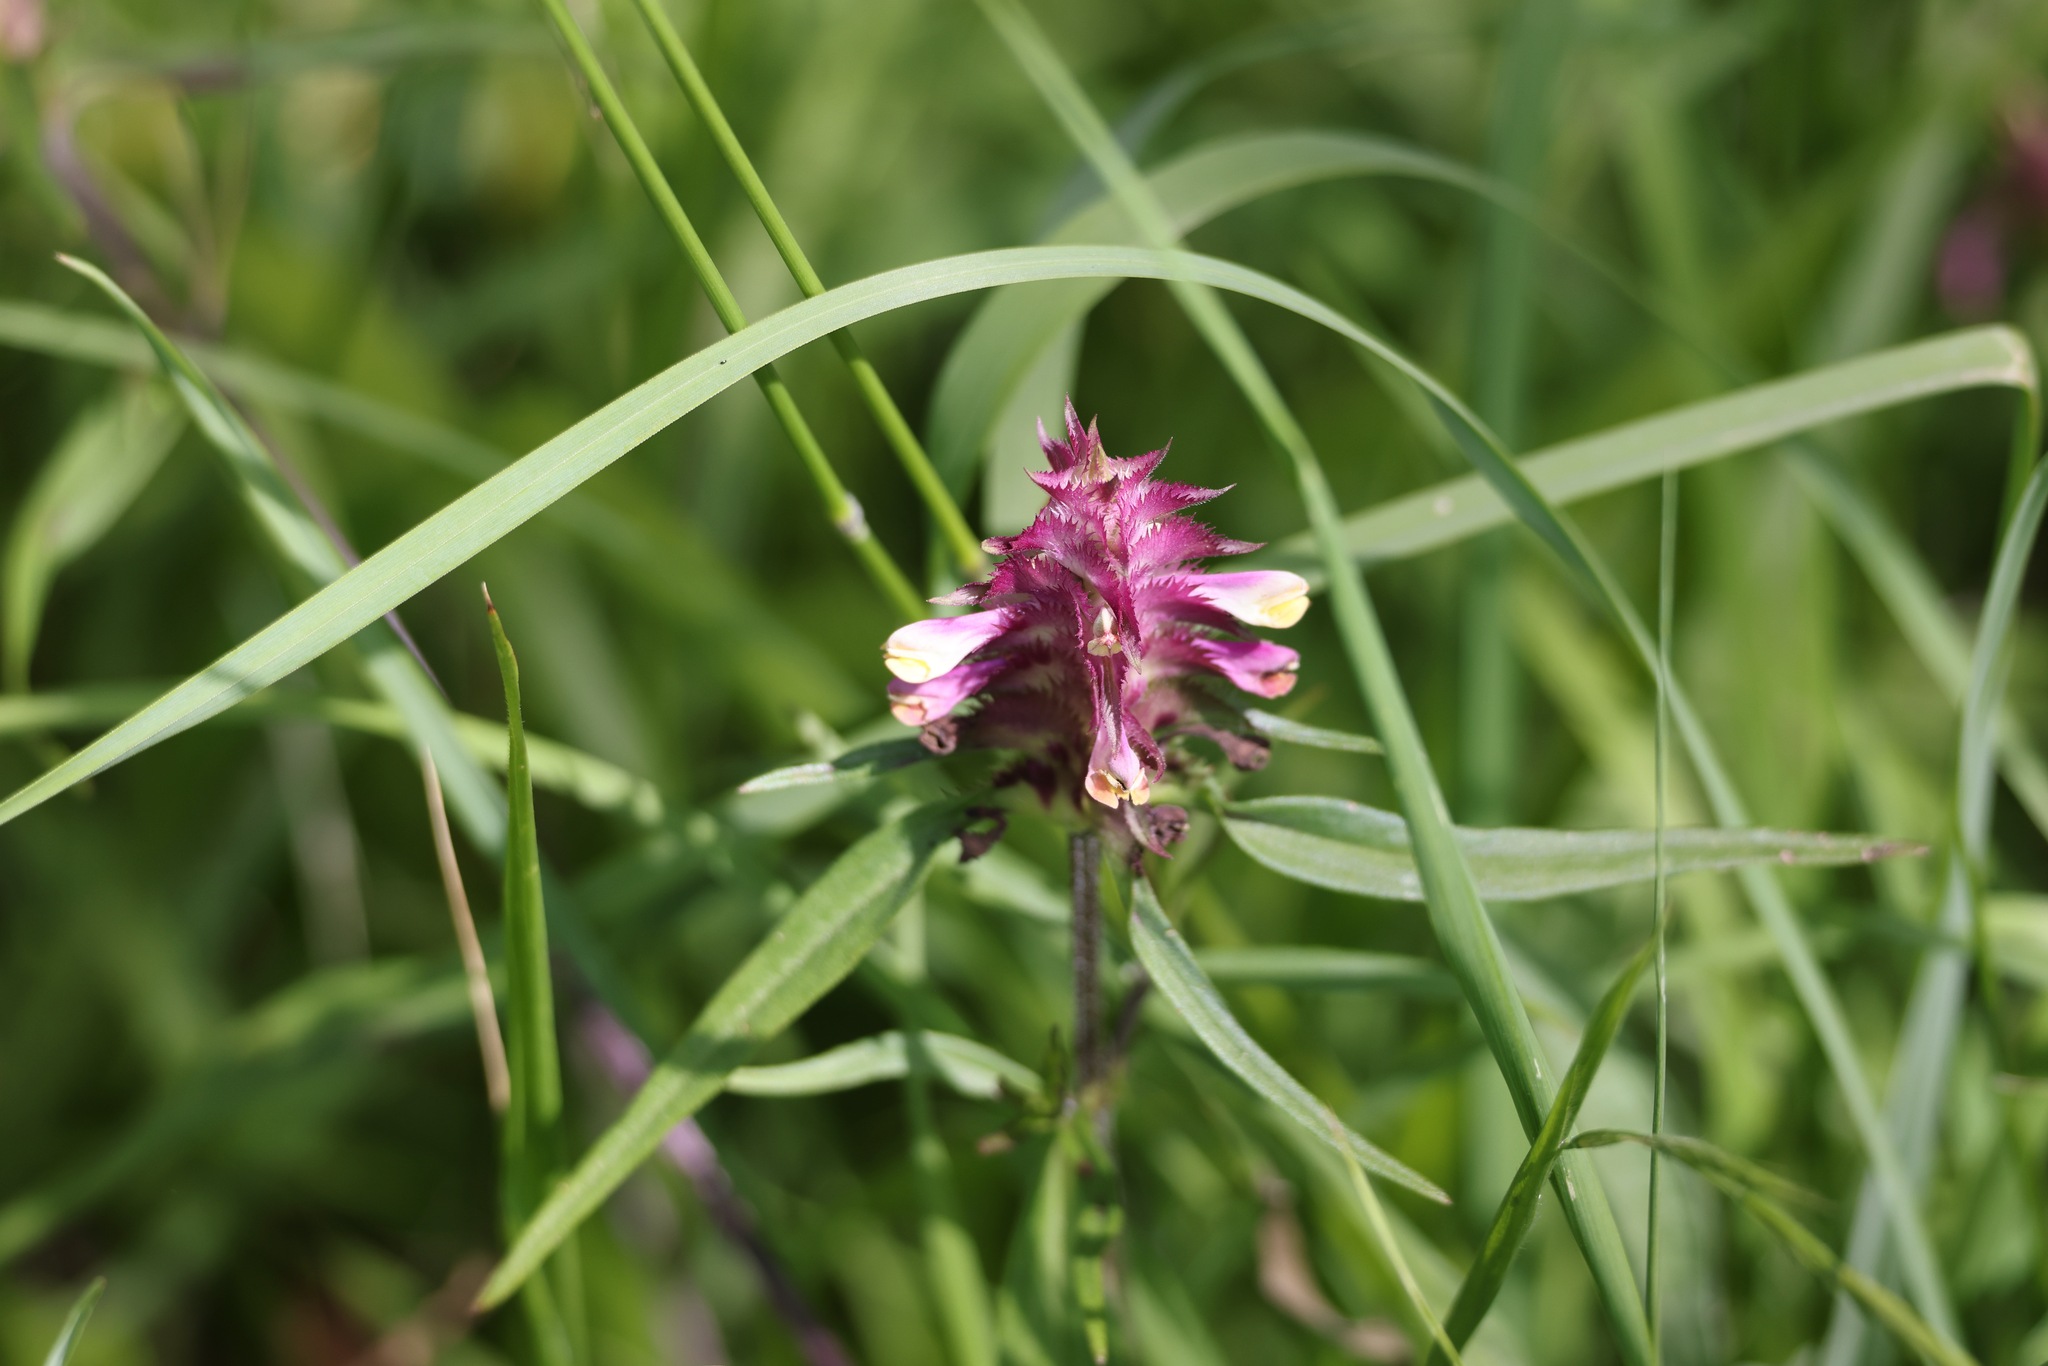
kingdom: Plantae
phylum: Tracheophyta
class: Magnoliopsida
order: Lamiales
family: Orobanchaceae
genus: Melampyrum
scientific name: Melampyrum cristatum
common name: Crested cow-wheat
